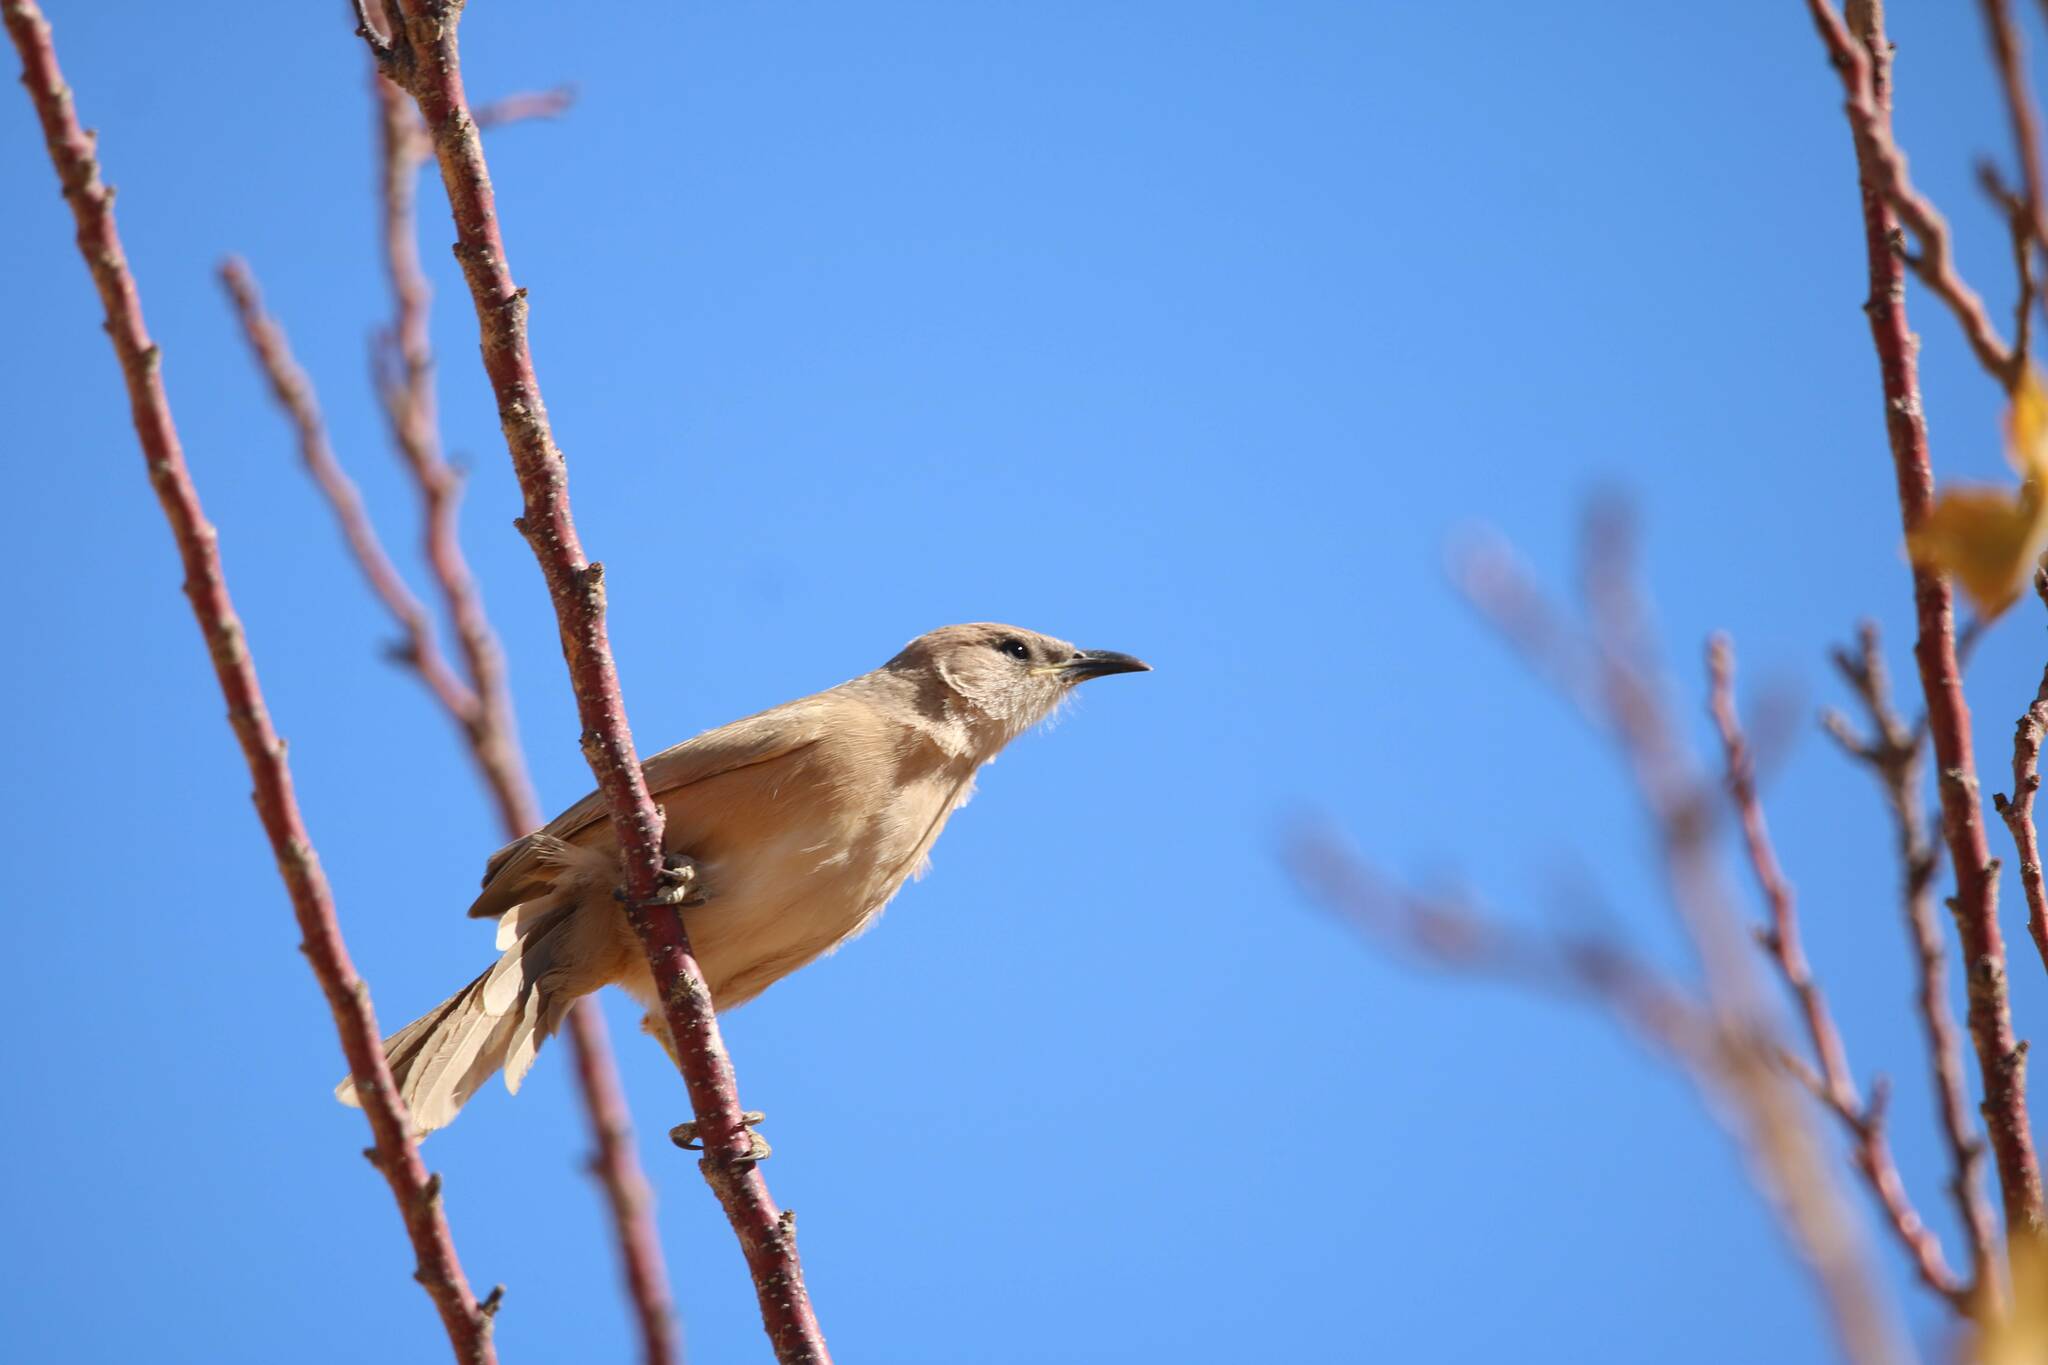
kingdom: Animalia
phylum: Chordata
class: Aves
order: Passeriformes
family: Leiothrichidae
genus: Turdoides
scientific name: Turdoides fulva
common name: Fulvous babbler
